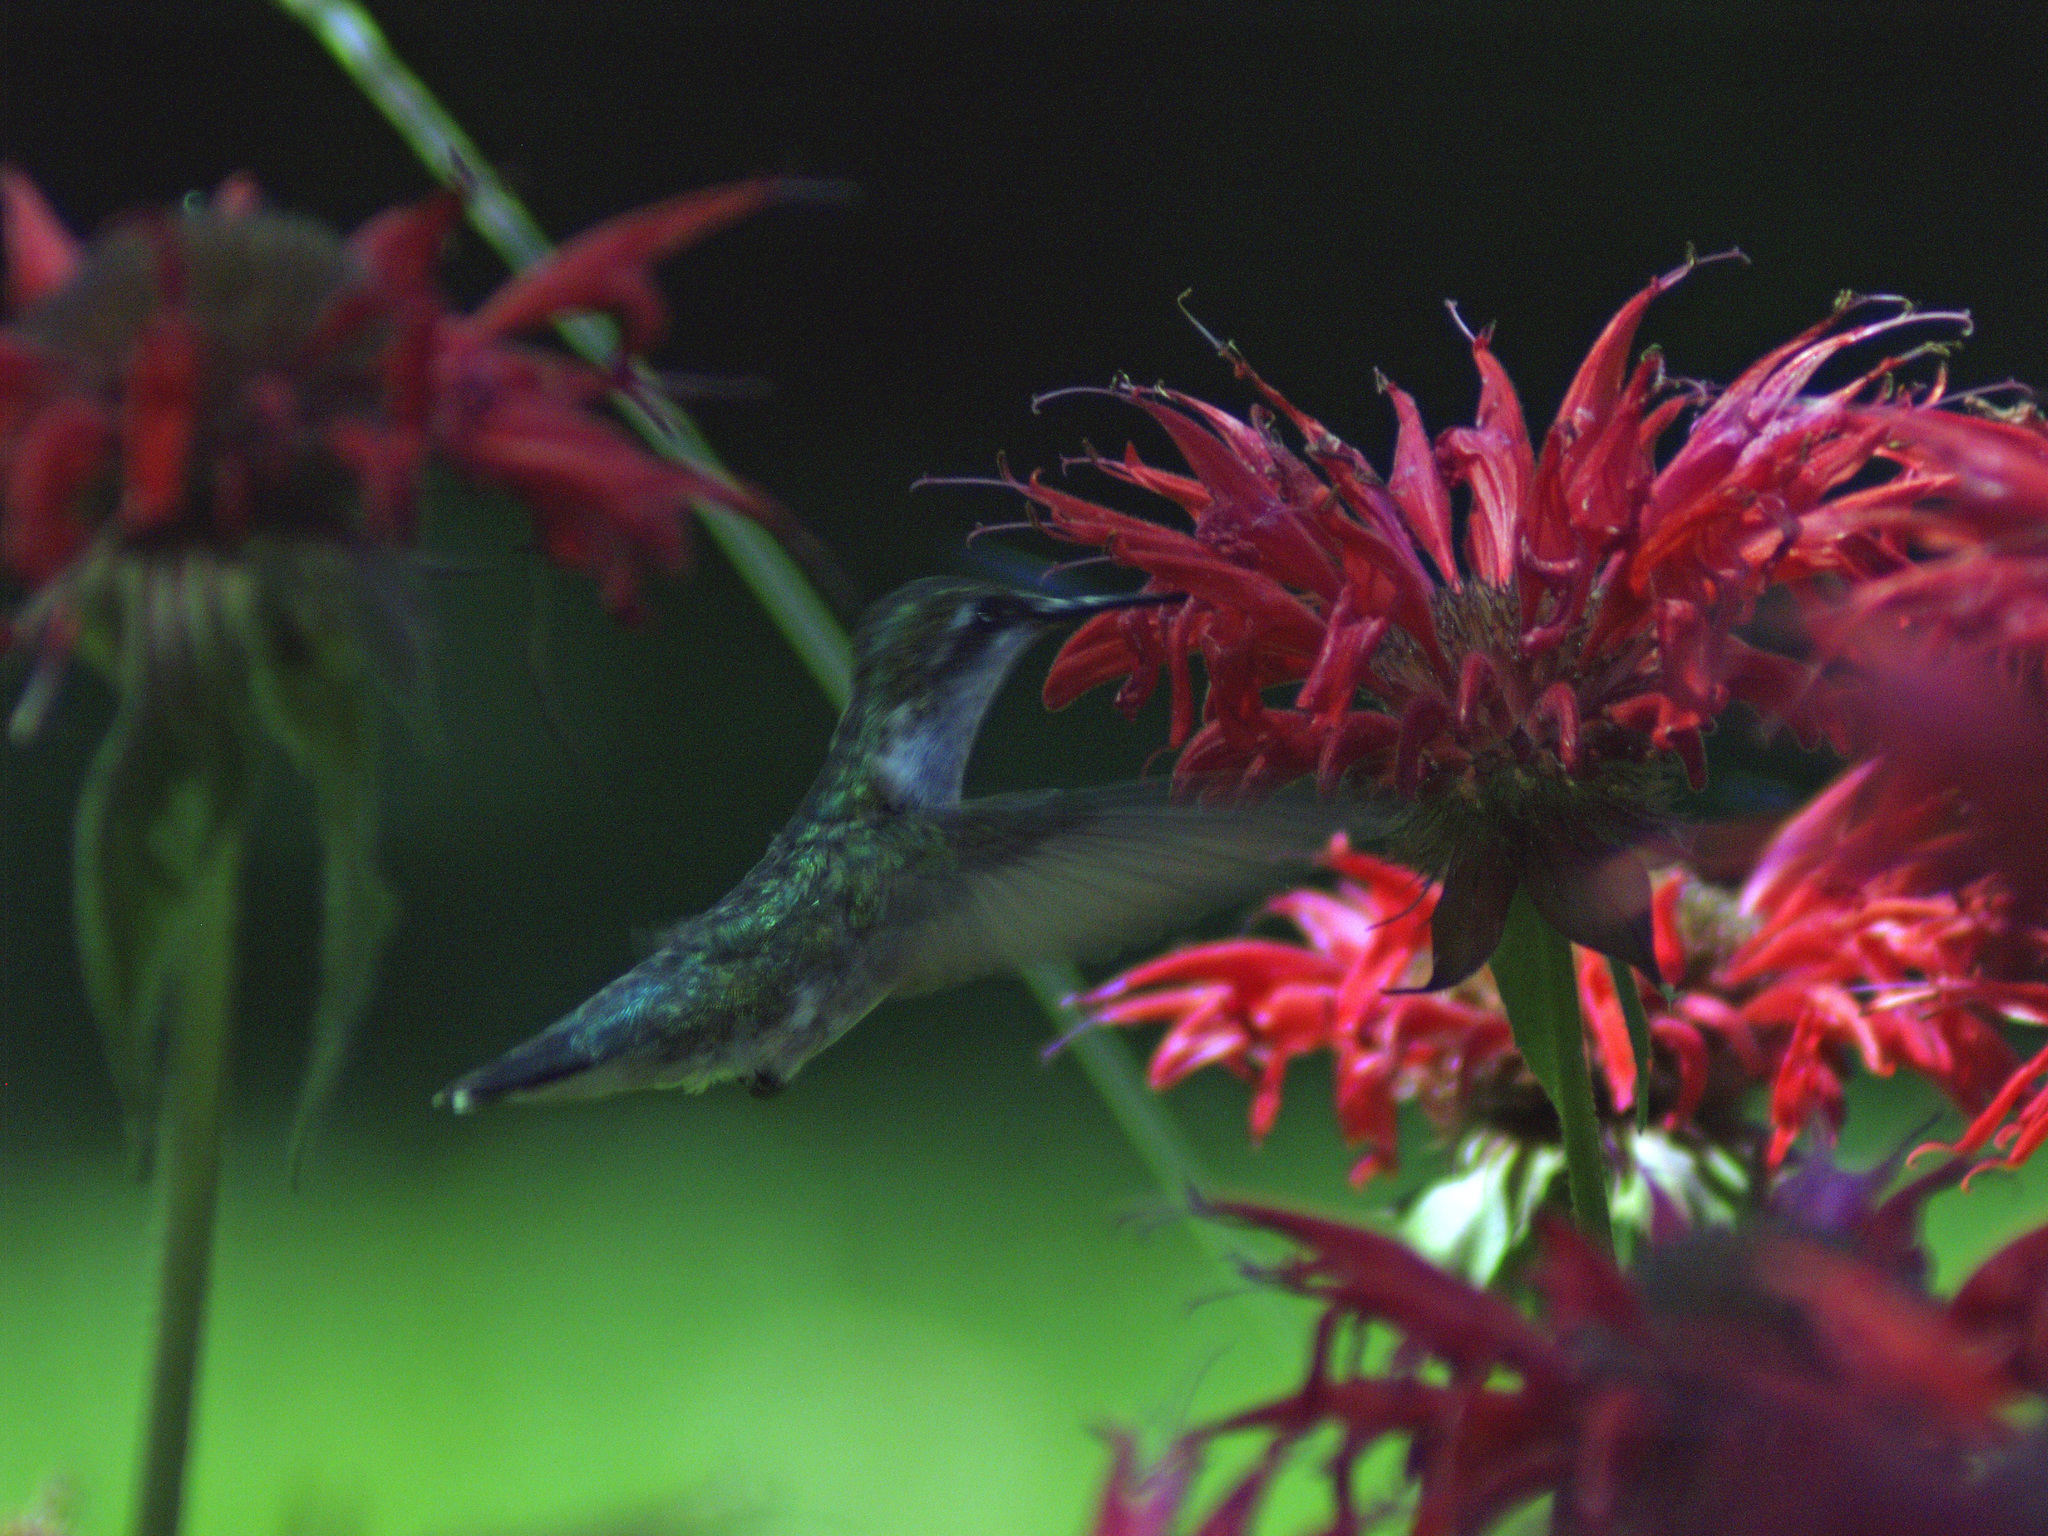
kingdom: Animalia
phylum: Chordata
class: Aves
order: Apodiformes
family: Trochilidae
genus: Archilochus
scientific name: Archilochus colubris
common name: Ruby-throated hummingbird
